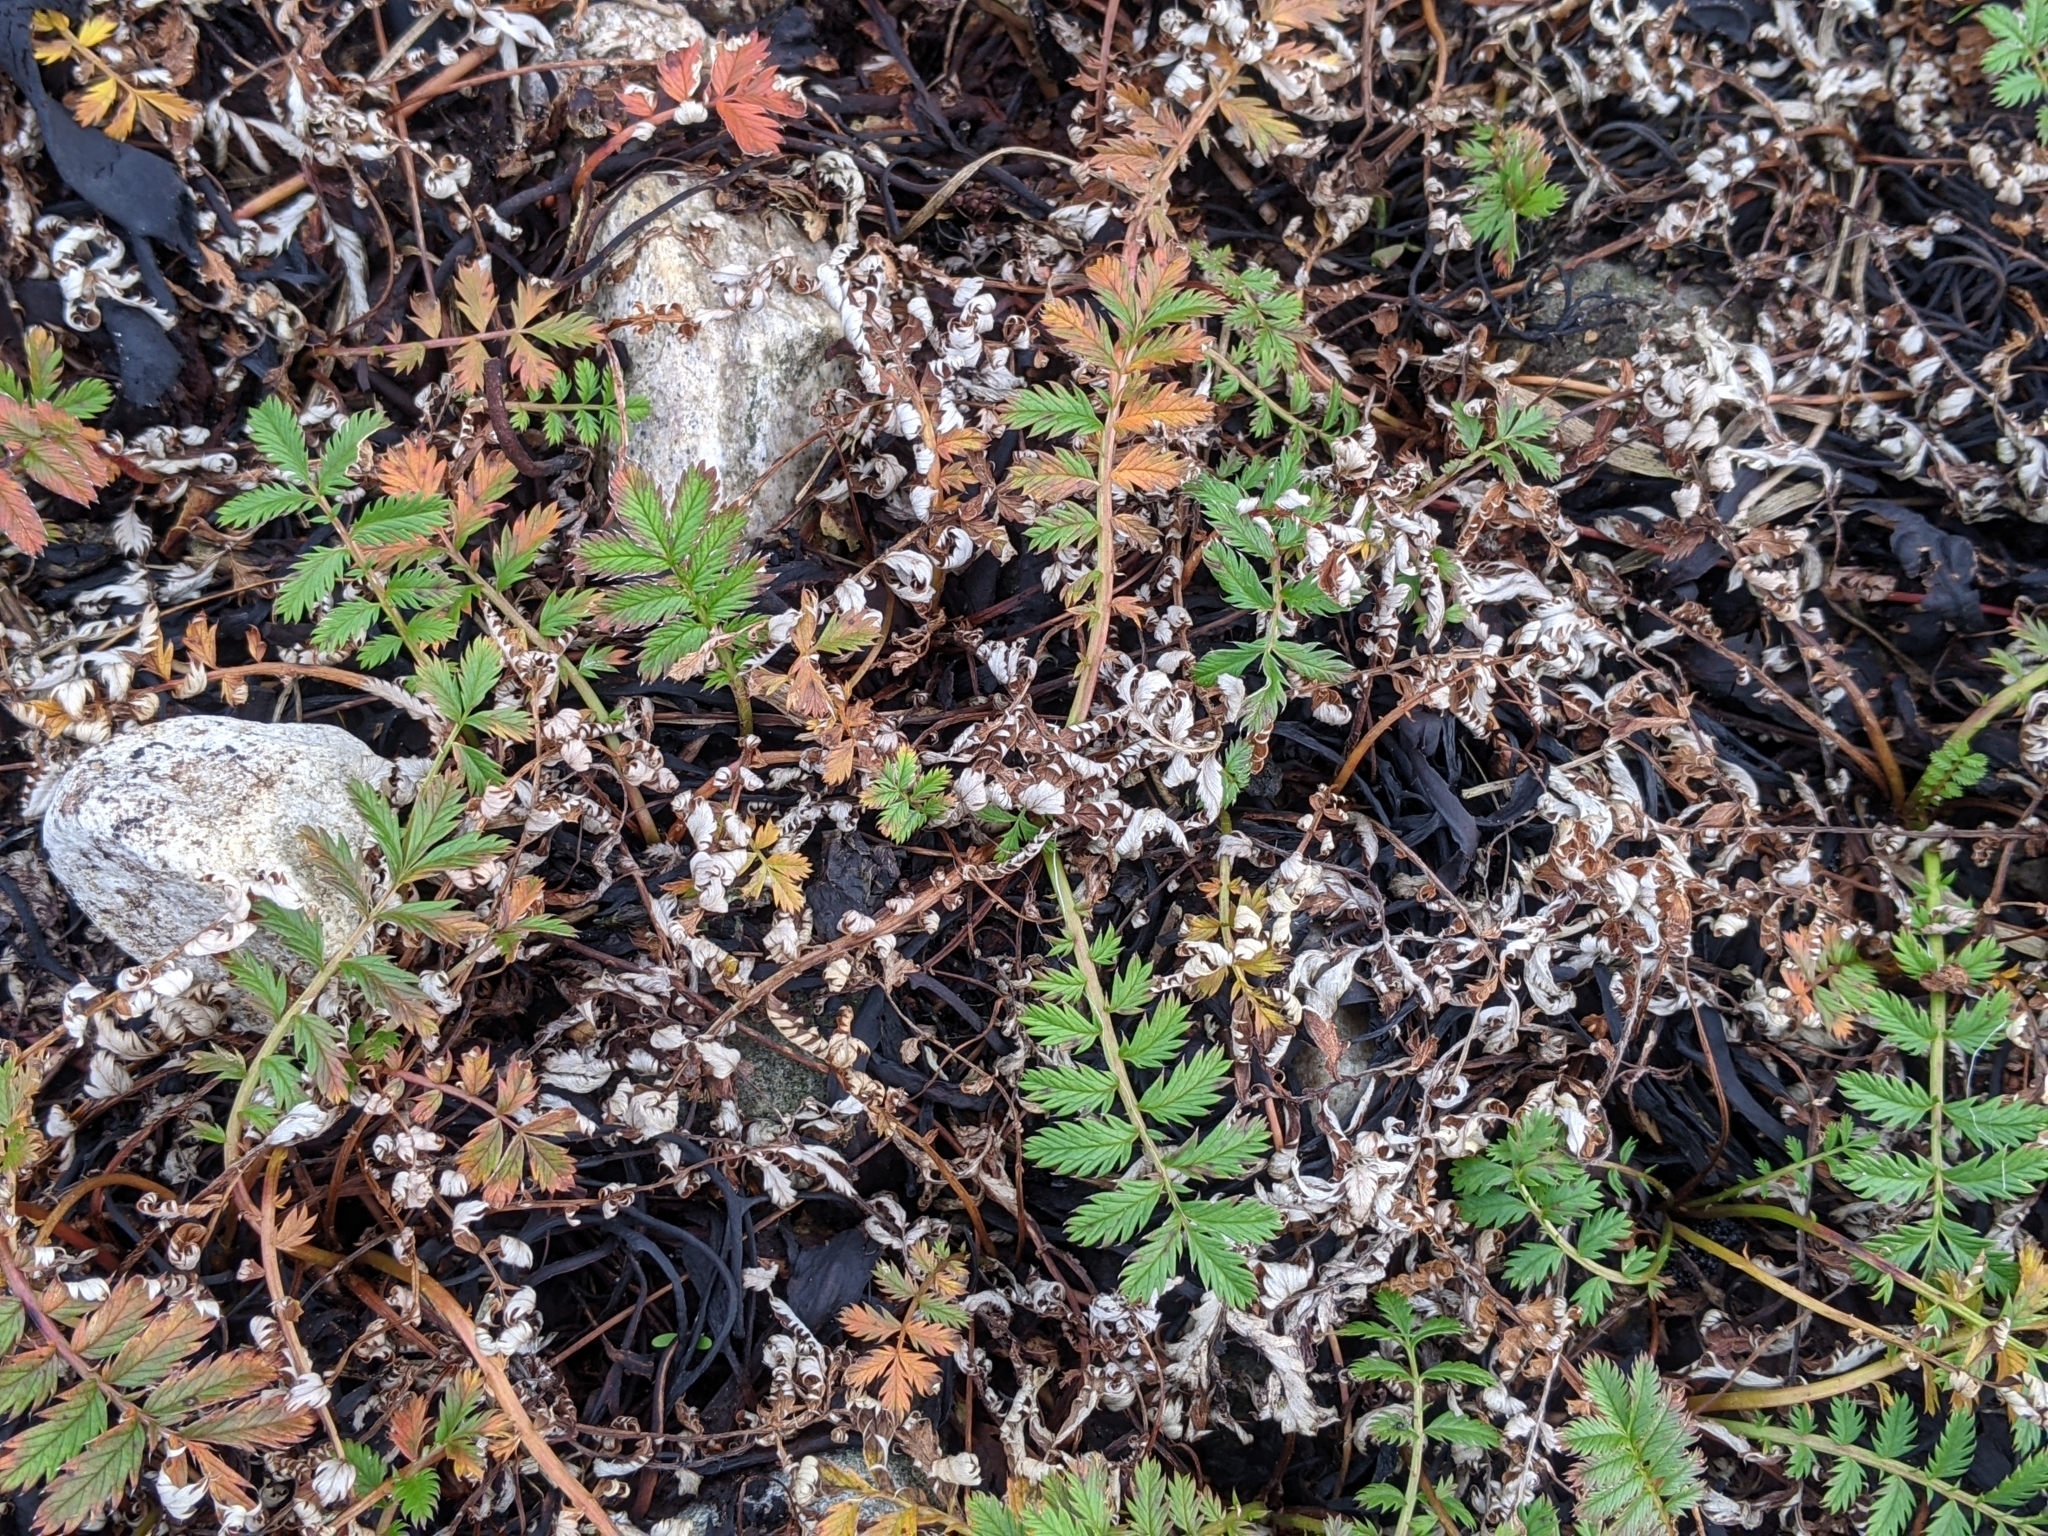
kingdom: Plantae
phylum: Tracheophyta
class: Magnoliopsida
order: Rosales
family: Rosaceae
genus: Argentina
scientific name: Argentina anserina
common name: Common silverweed
